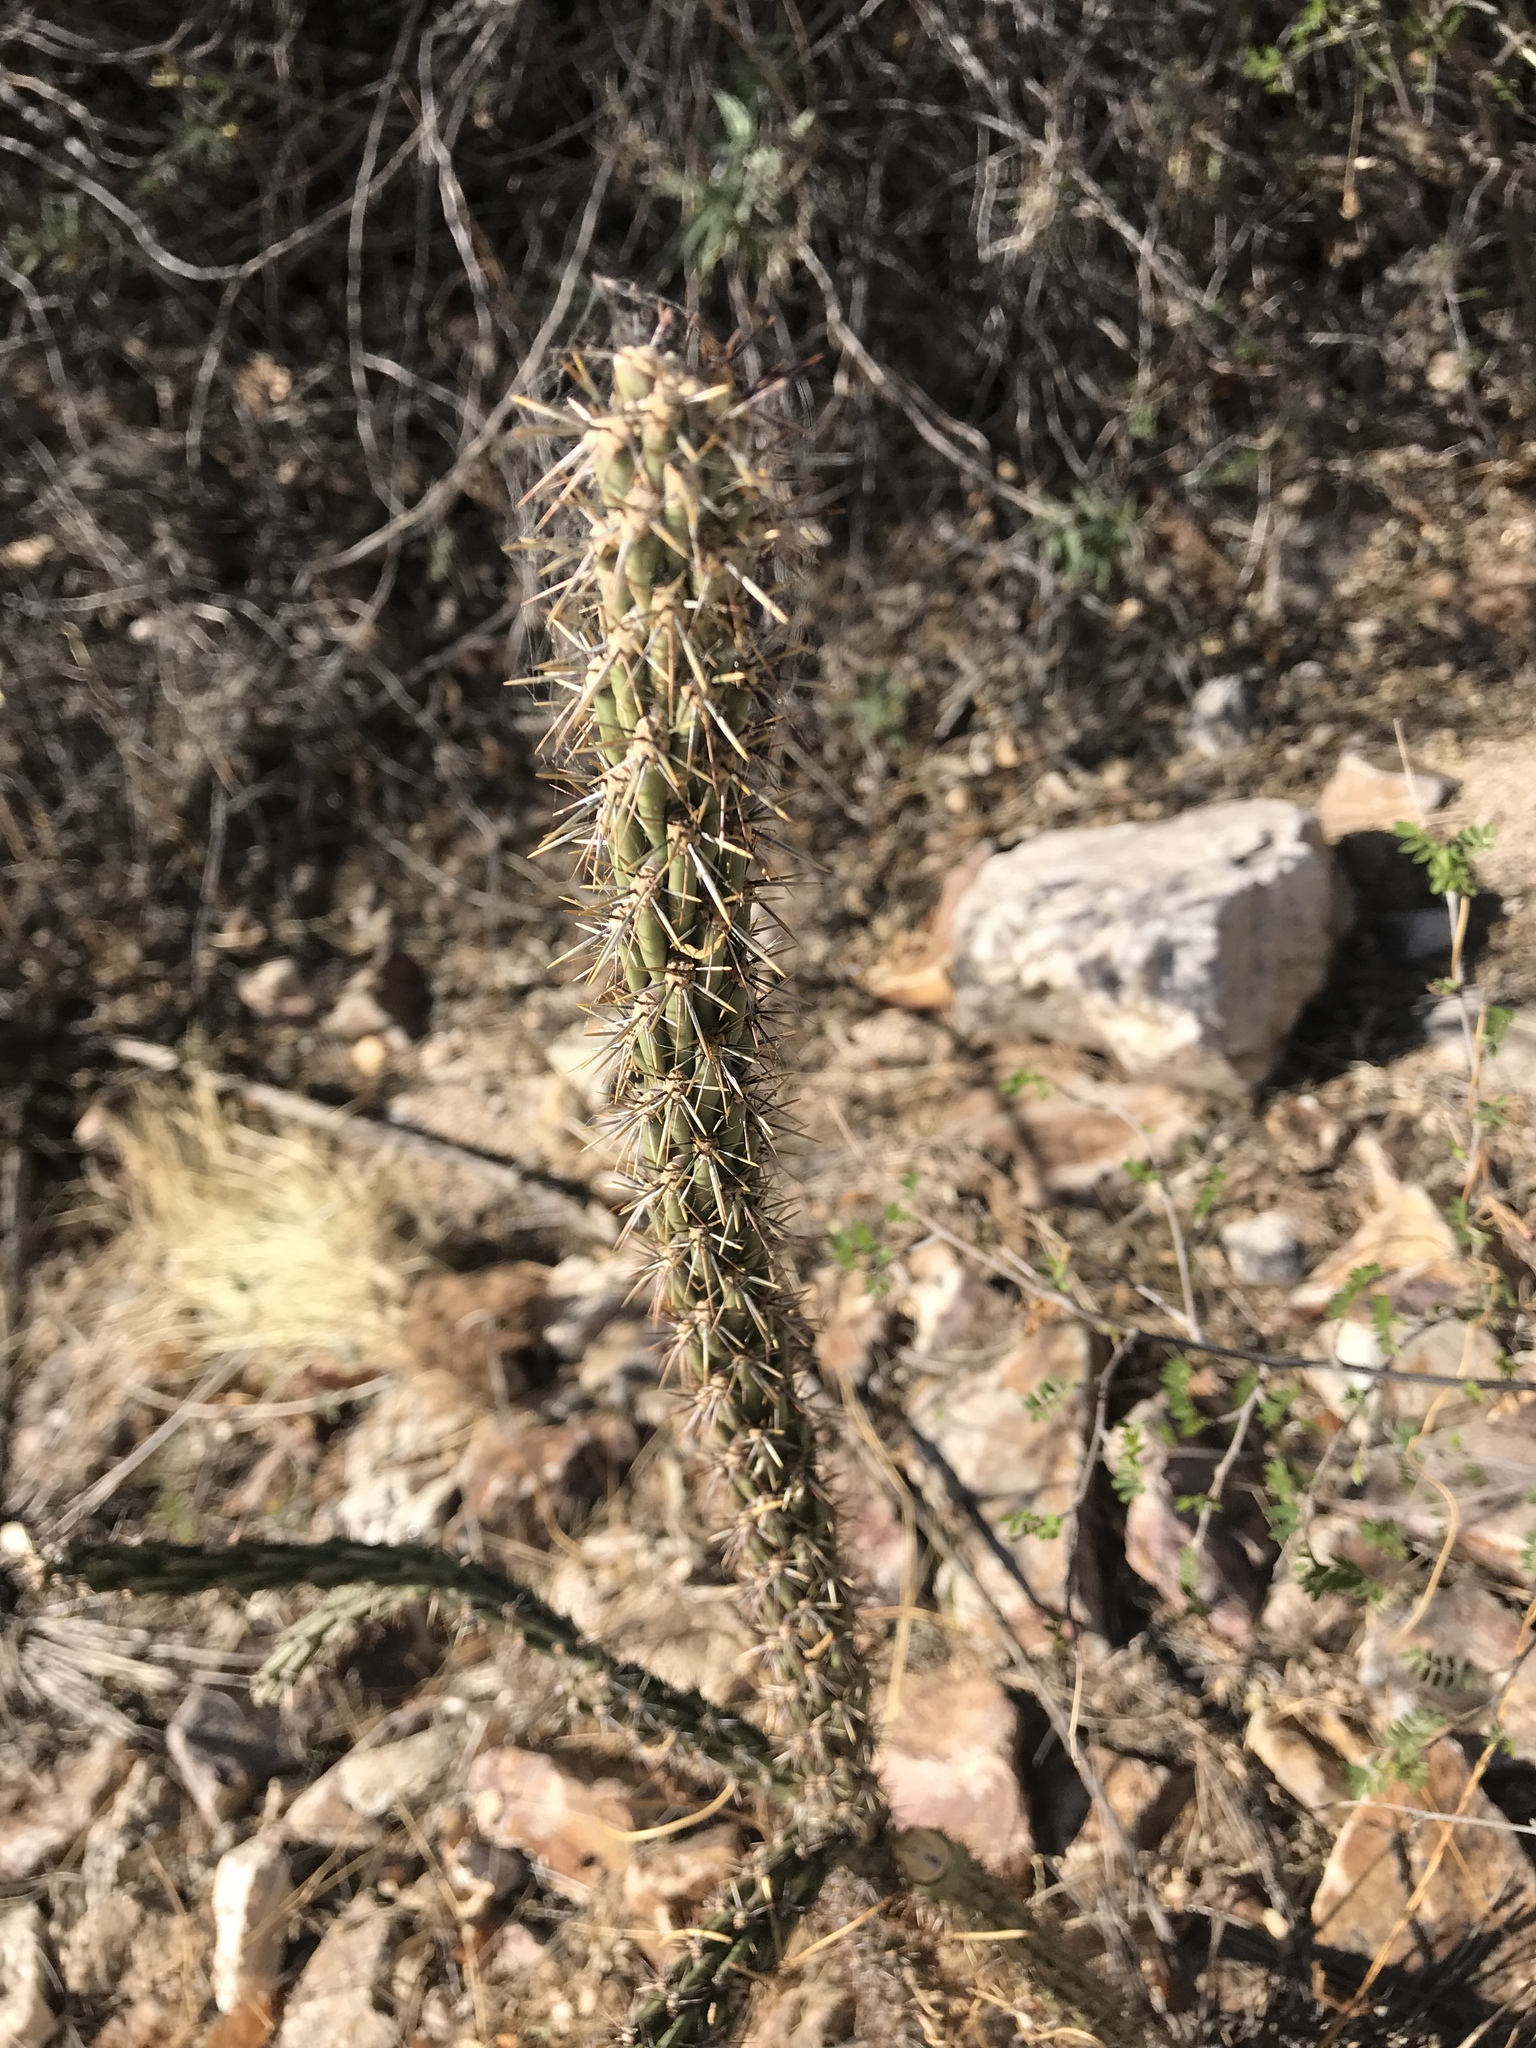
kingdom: Plantae
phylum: Tracheophyta
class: Magnoliopsida
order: Caryophyllales
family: Cactaceae
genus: Cylindropuntia
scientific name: Cylindropuntia imbricata
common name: Candelabrum cactus
